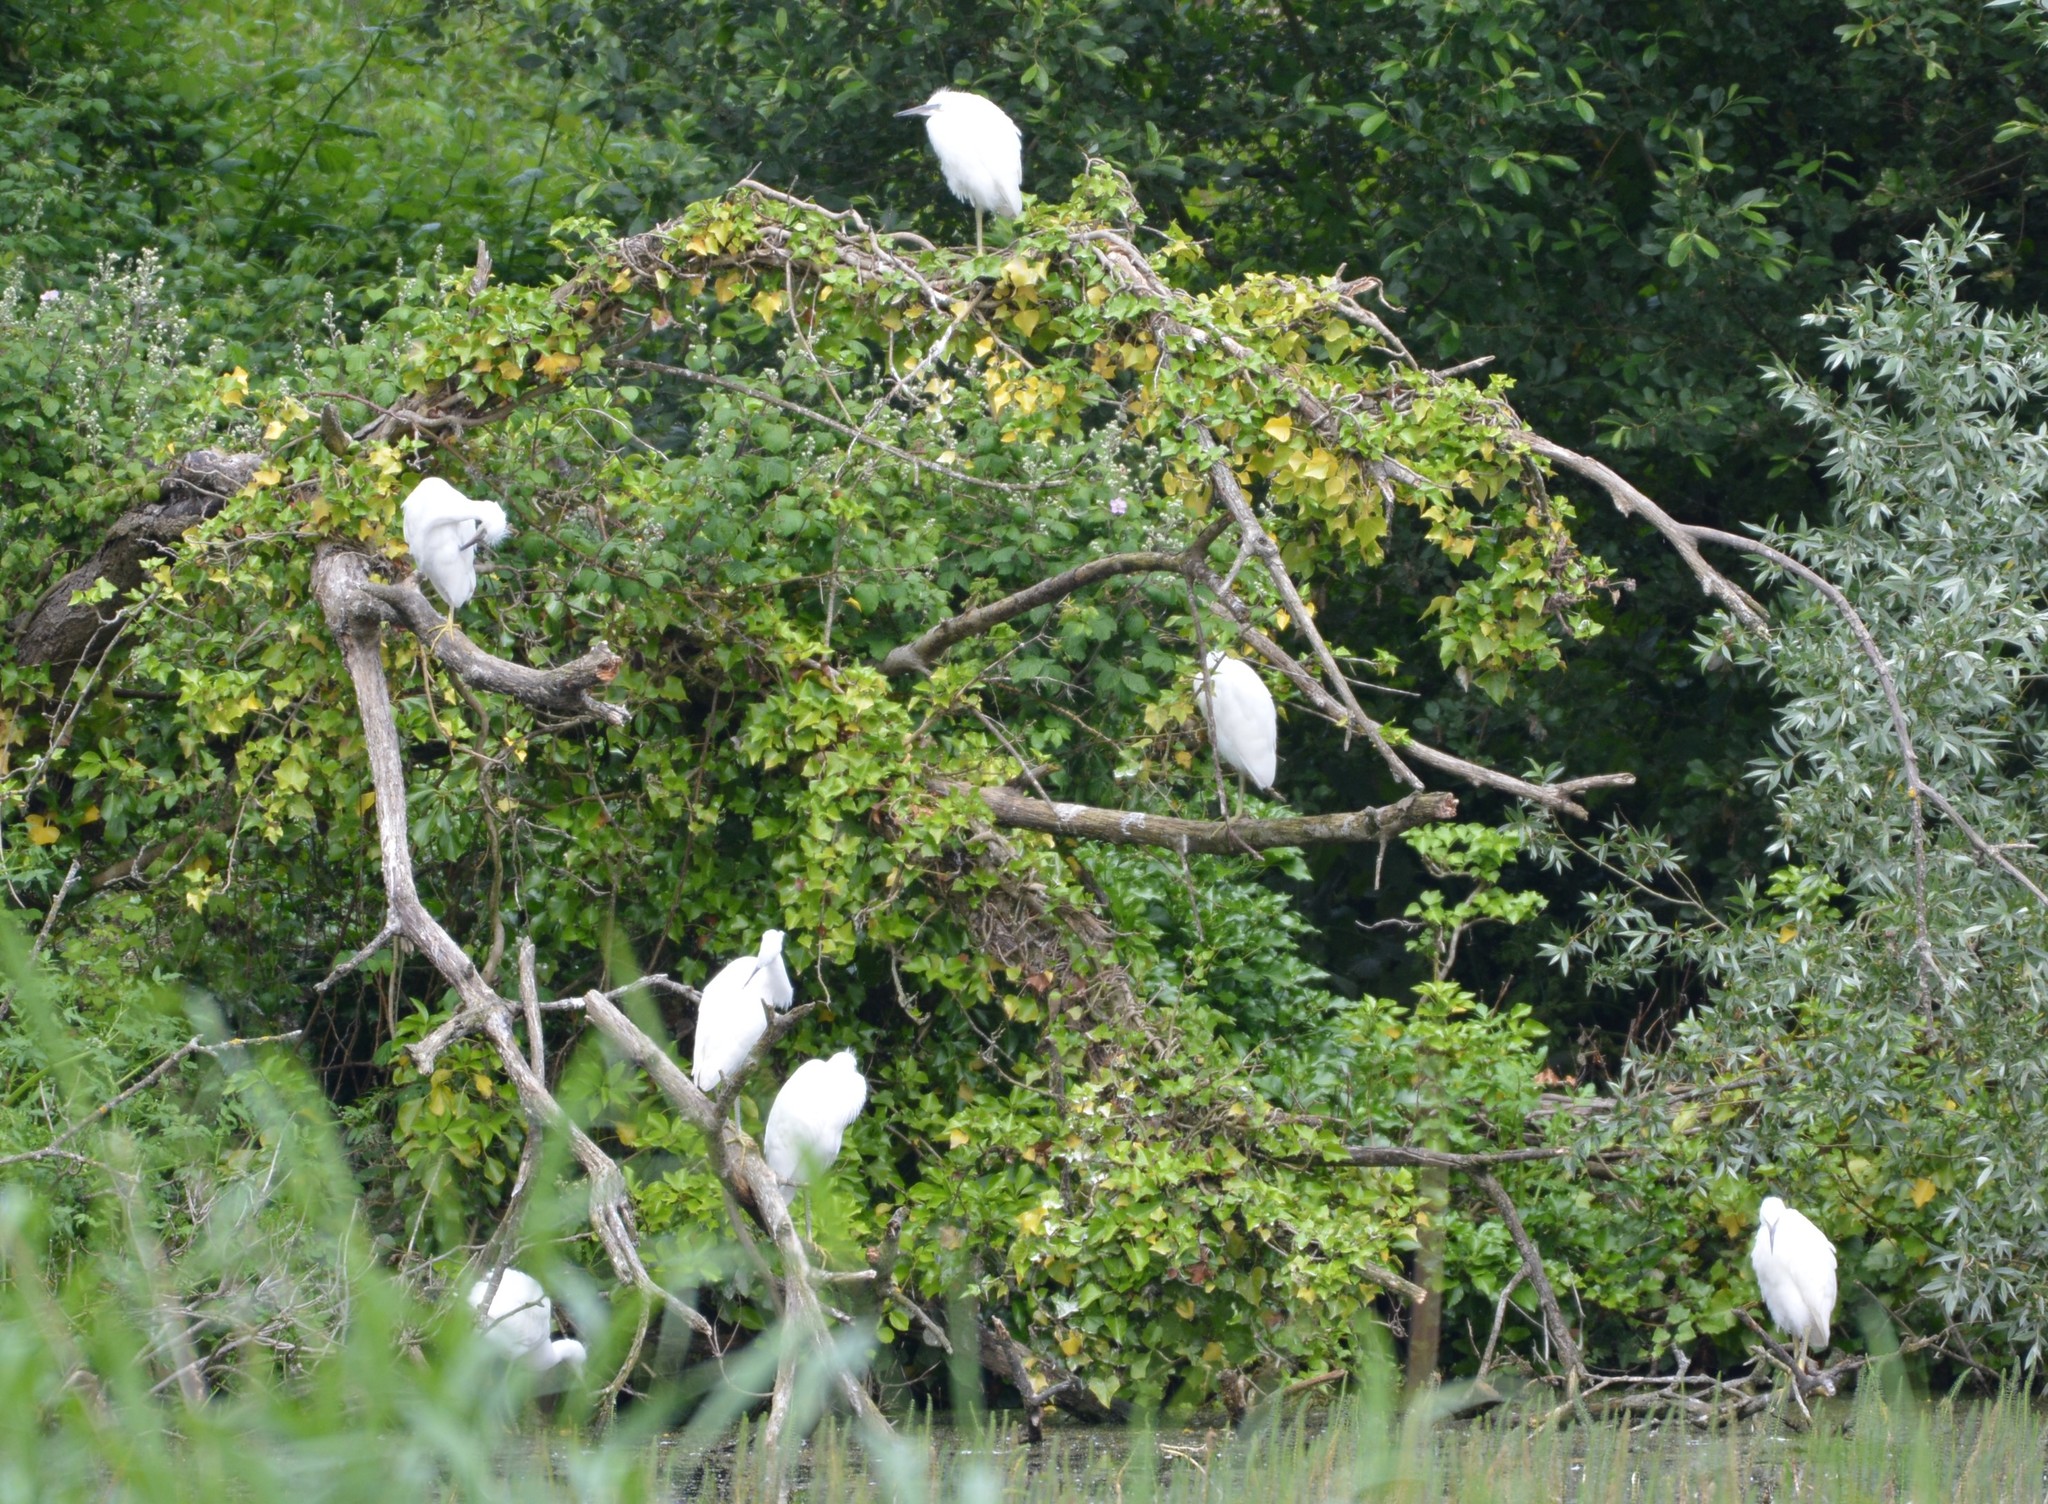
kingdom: Animalia
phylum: Chordata
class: Aves
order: Pelecaniformes
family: Ardeidae
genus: Egretta
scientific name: Egretta garzetta
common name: Little egret
